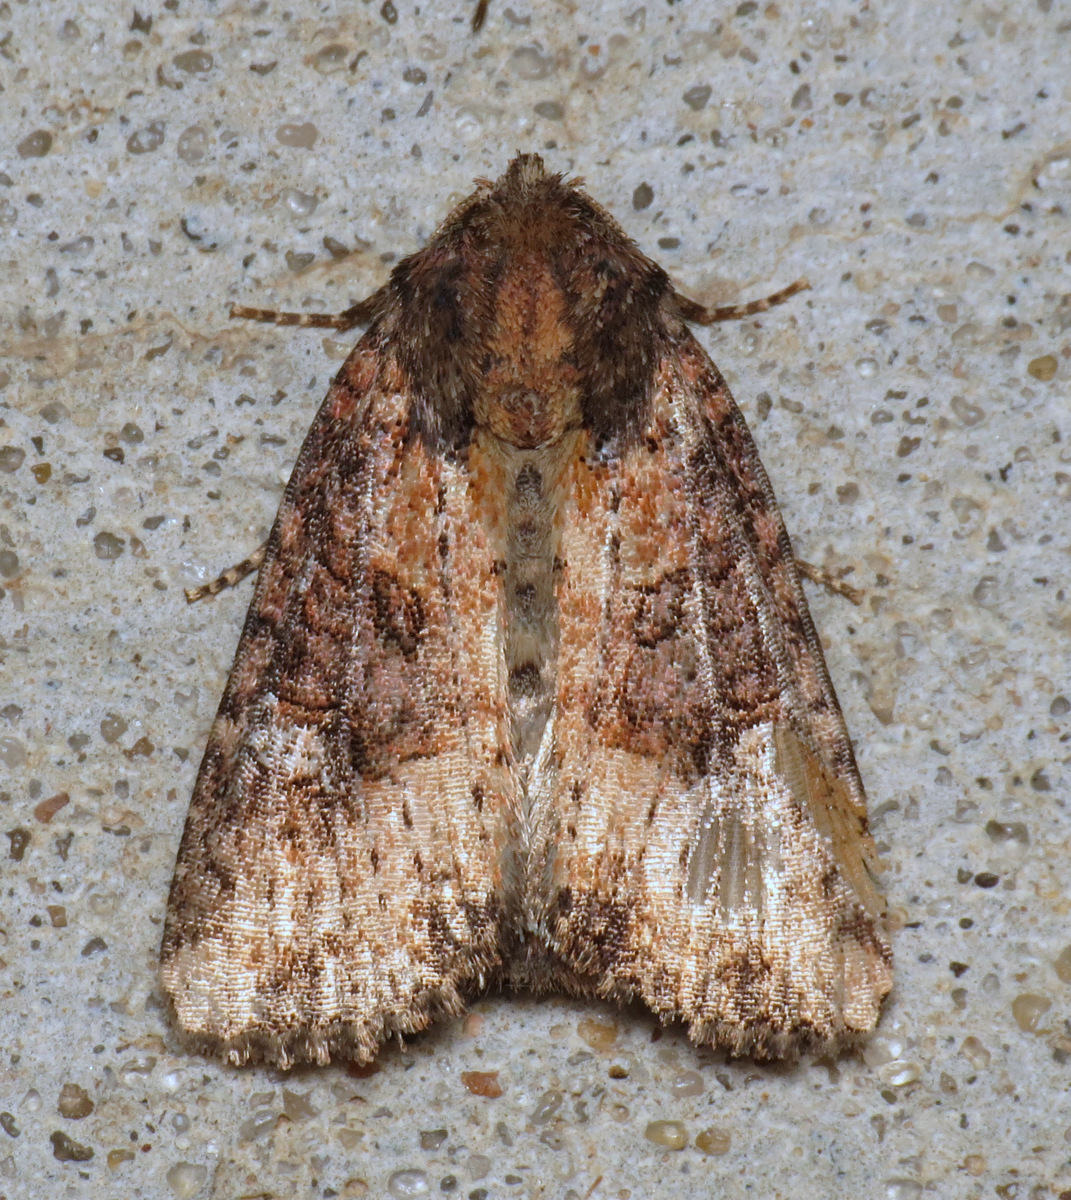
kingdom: Animalia
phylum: Arthropoda
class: Insecta
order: Lepidoptera
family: Noctuidae
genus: Mesapamea
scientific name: Mesapamea fractilinea
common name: Broken-lined brocade moth
